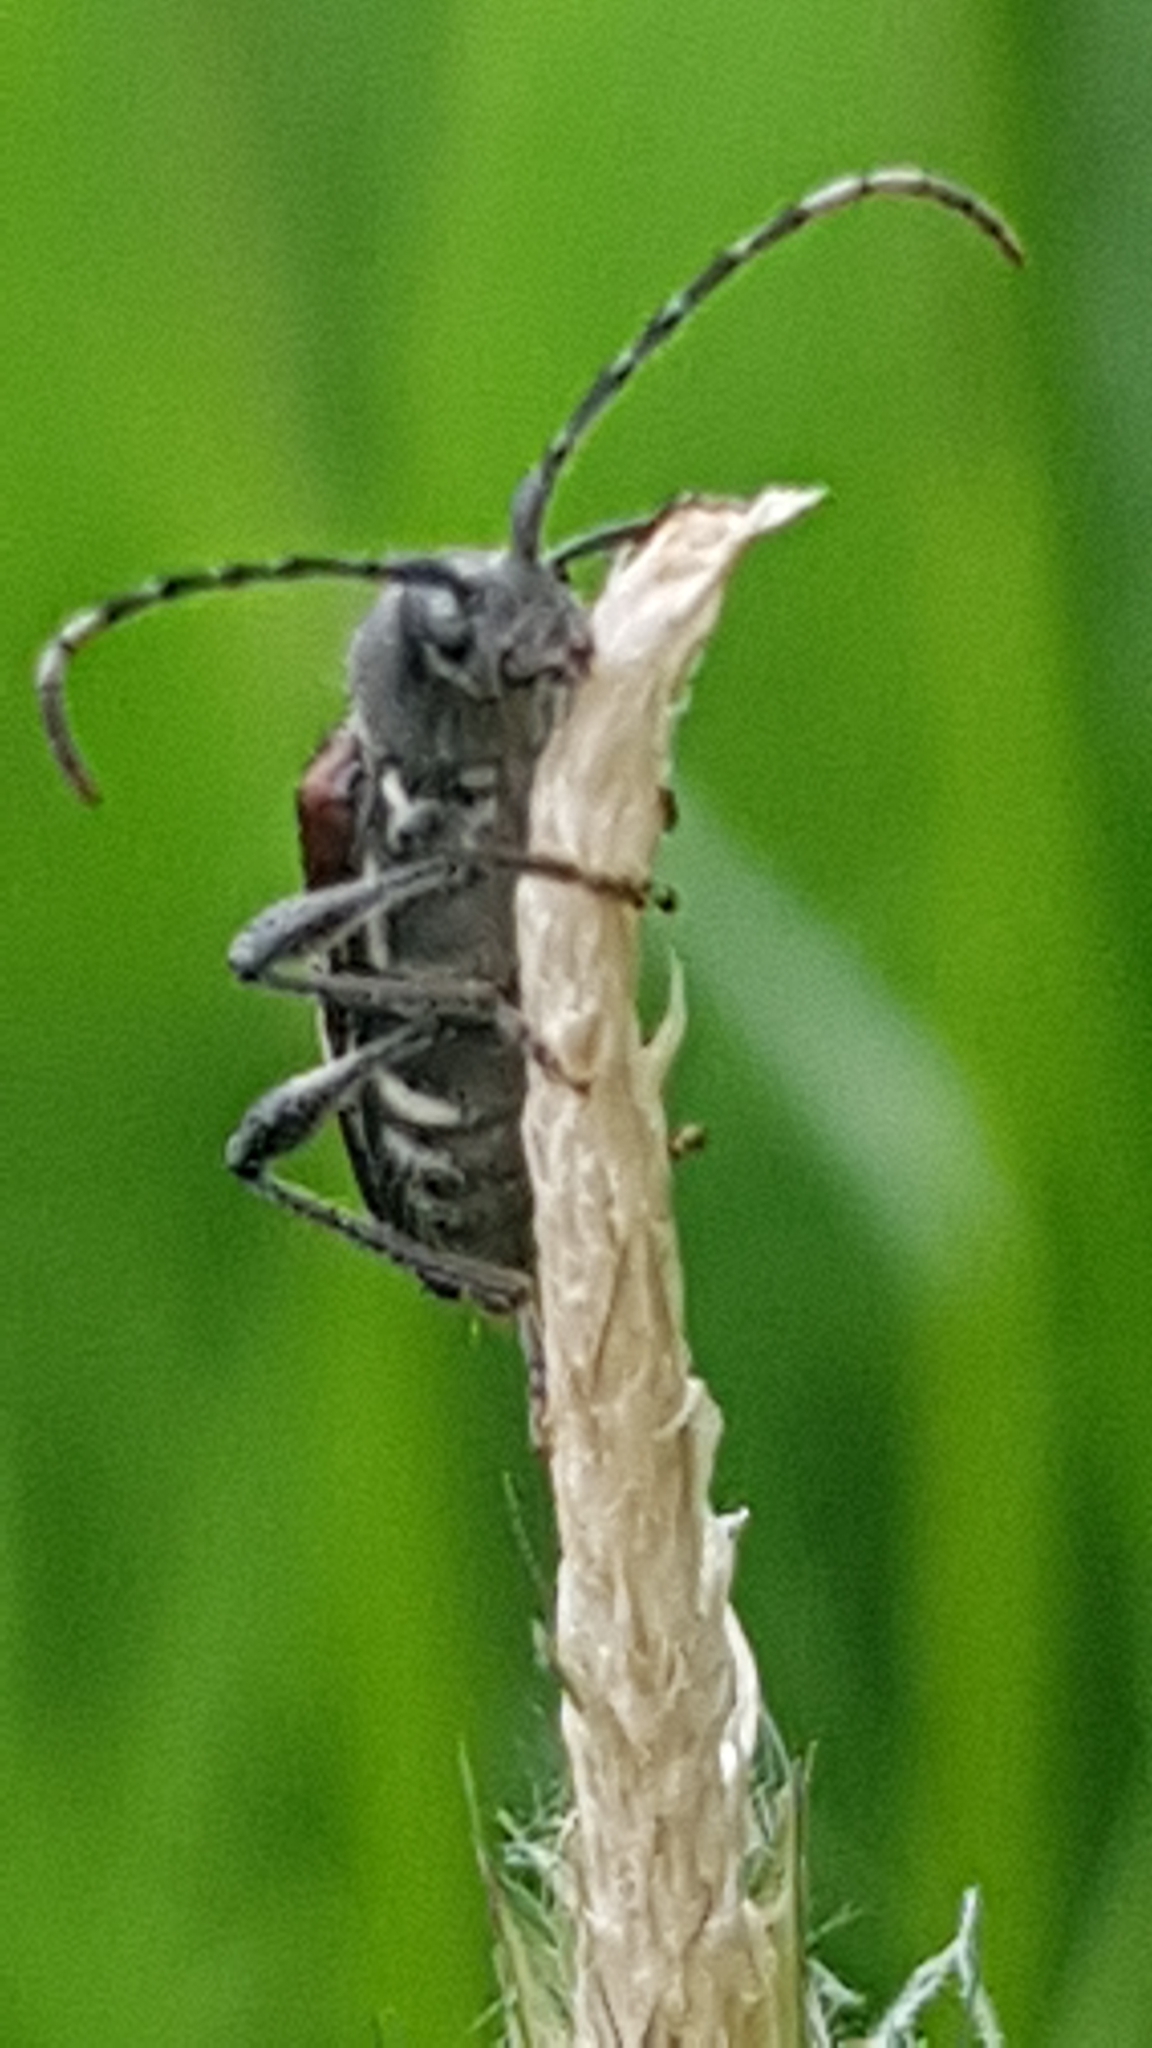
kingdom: Animalia
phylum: Arthropoda
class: Insecta
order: Coleoptera
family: Cerambycidae
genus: Anaglyptus
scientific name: Anaglyptus mysticus
